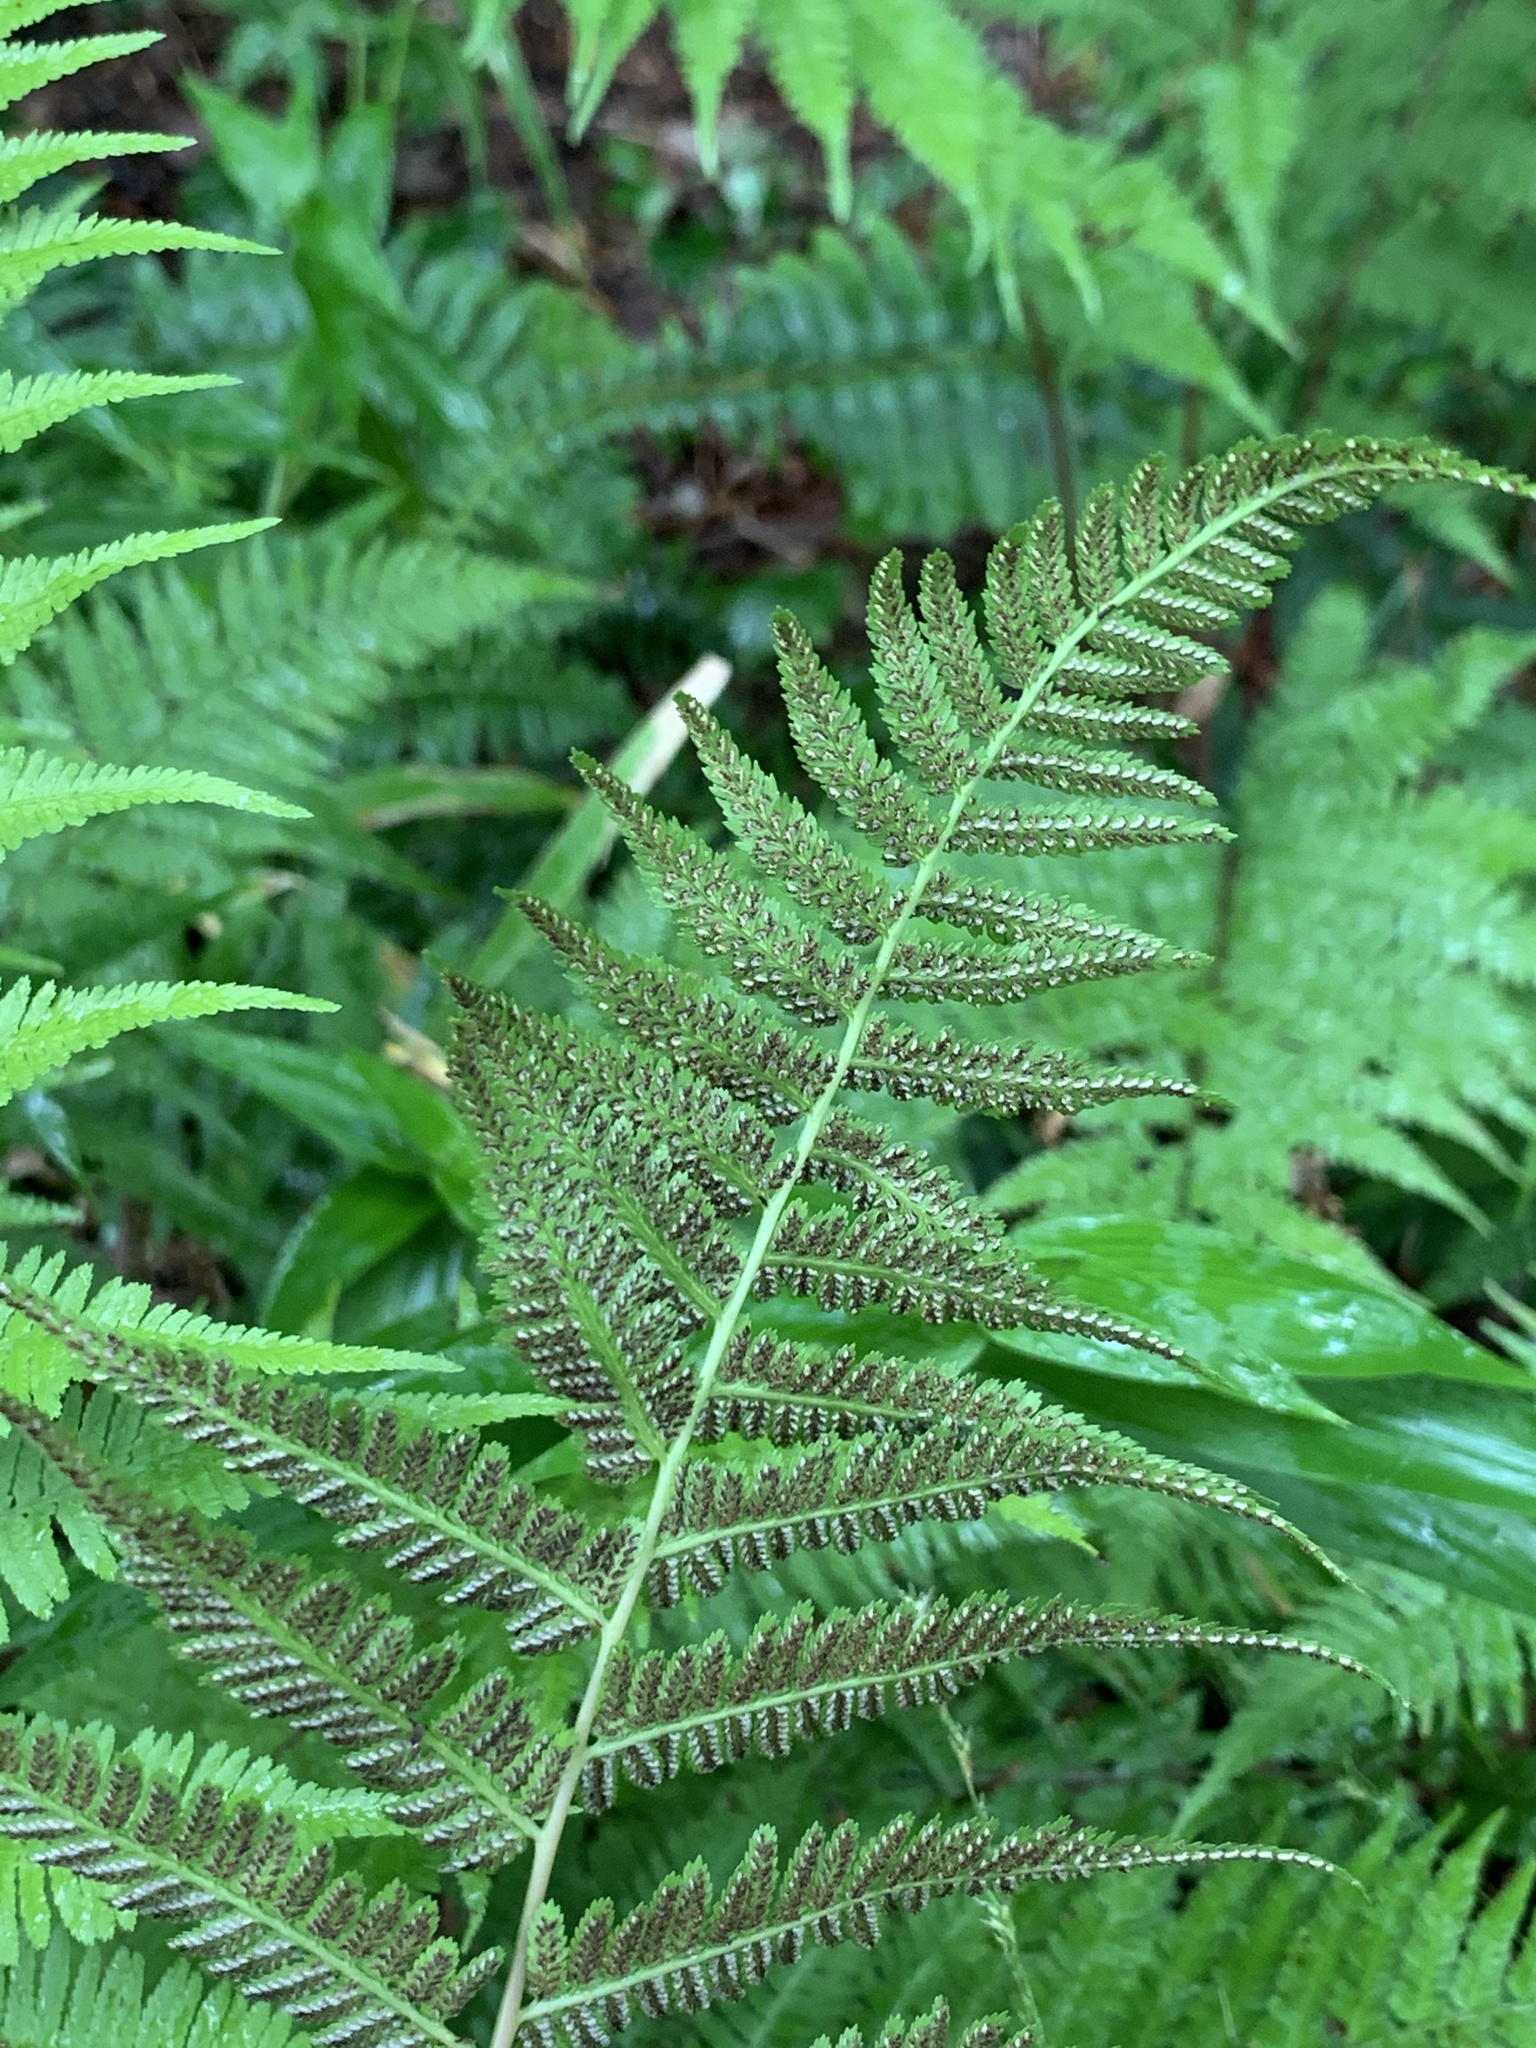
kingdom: Plantae
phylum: Tracheophyta
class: Polypodiopsida
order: Polypodiales
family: Athyriaceae
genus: Athyrium
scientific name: Athyrium asplenioides
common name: Southern lady fern
